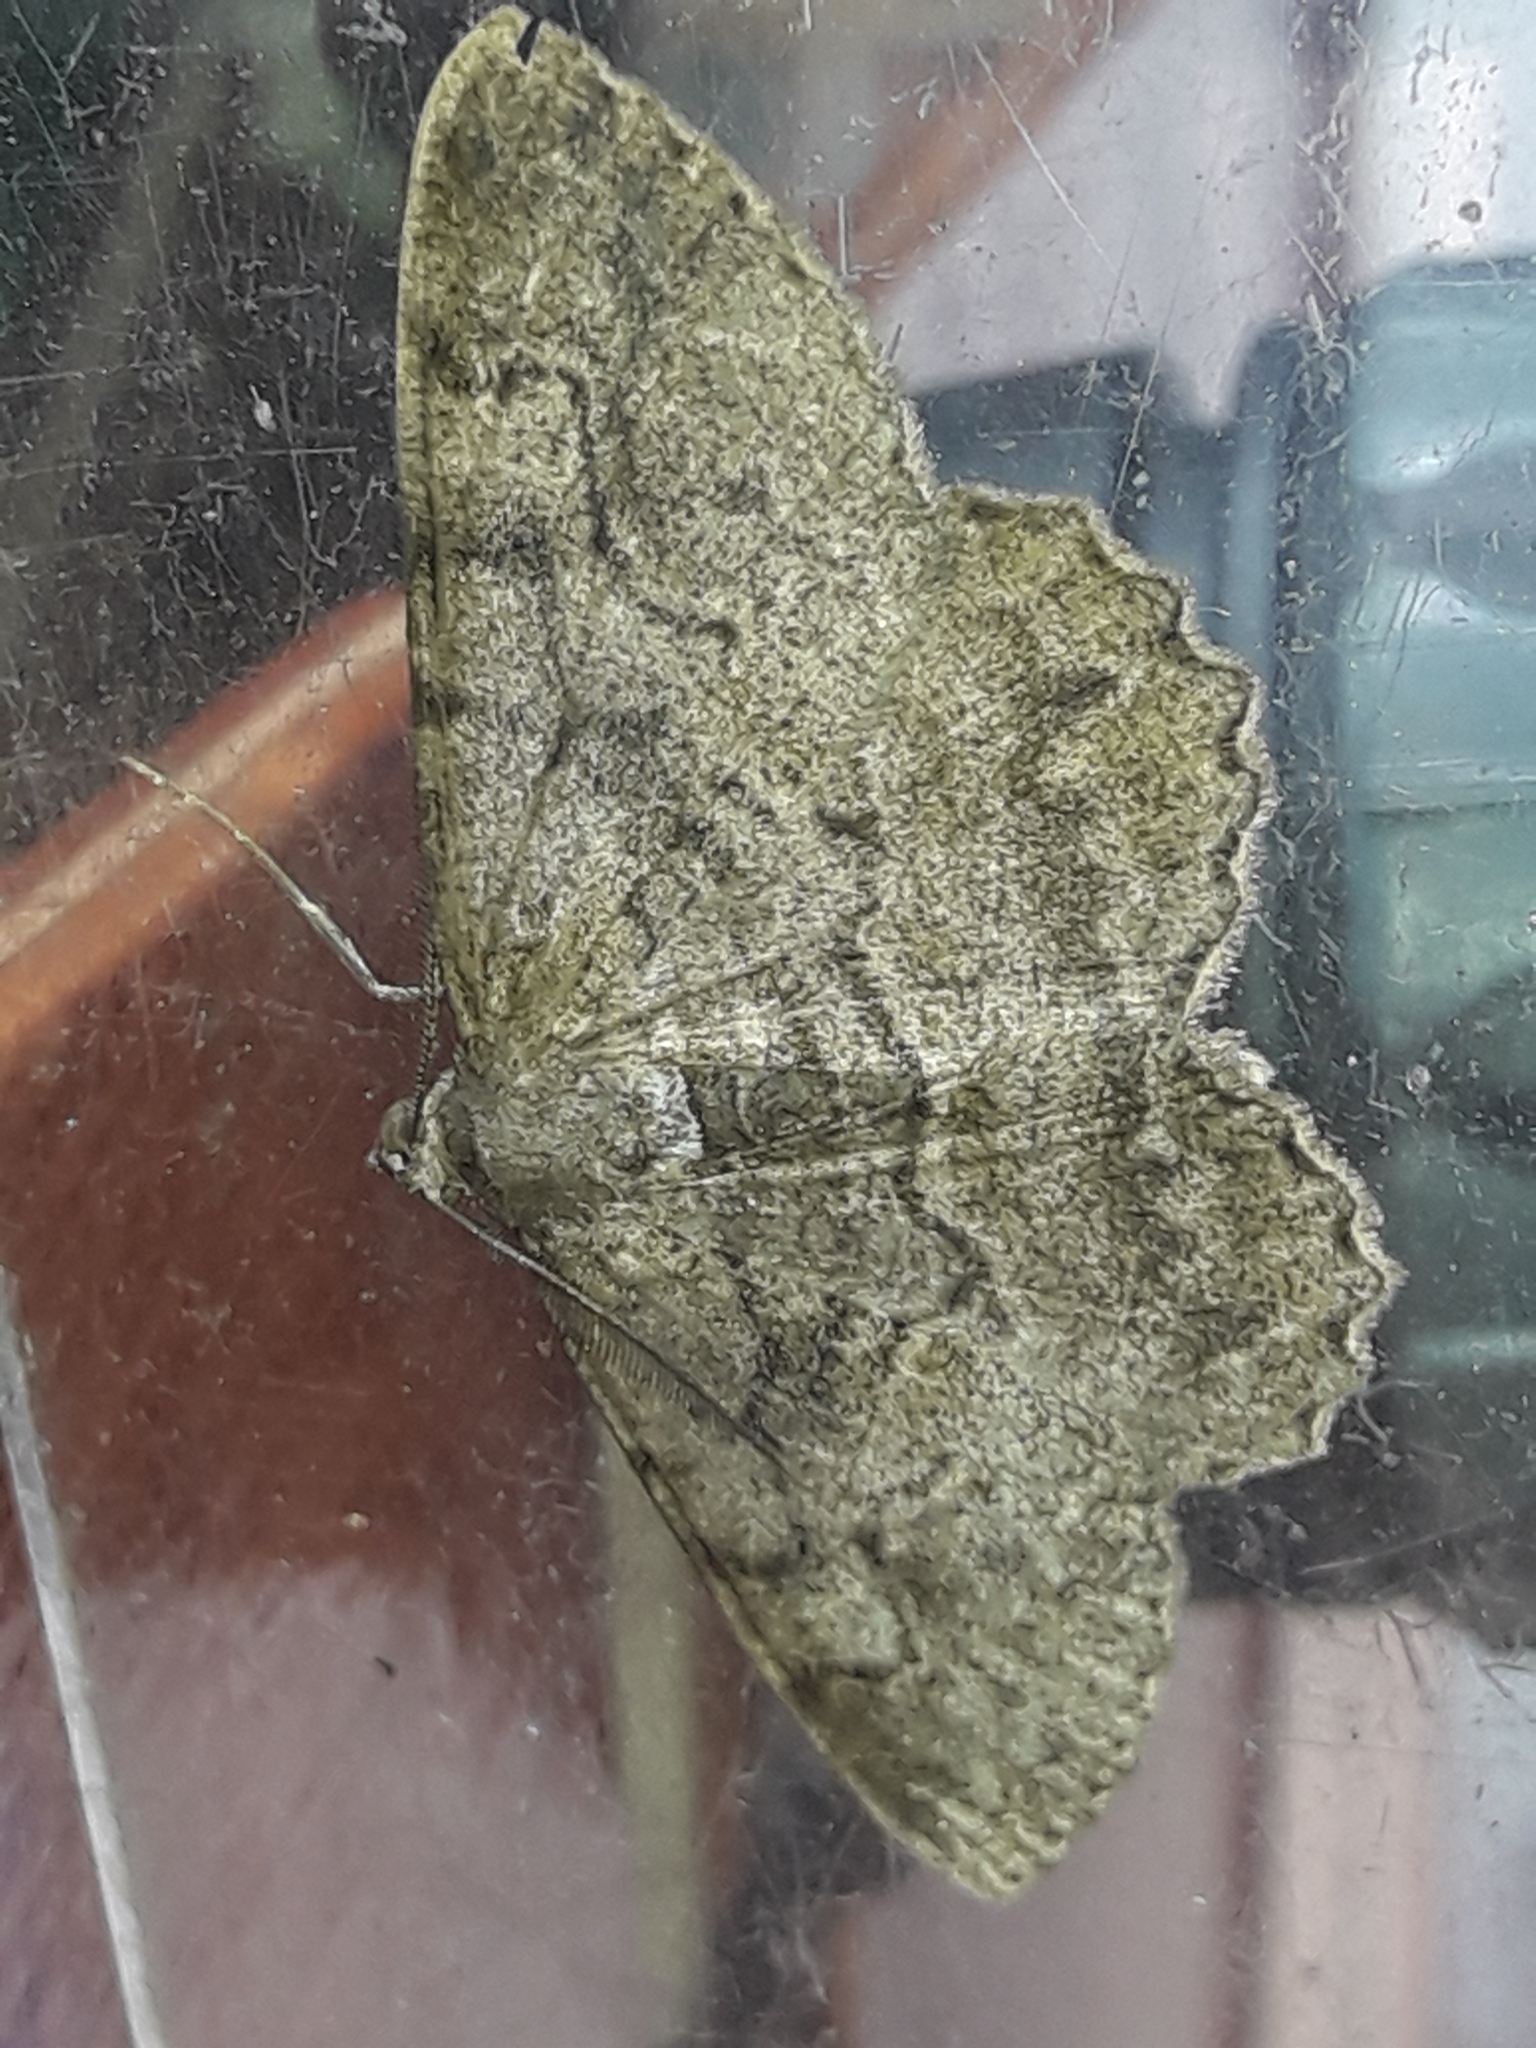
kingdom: Animalia
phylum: Arthropoda
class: Insecta
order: Lepidoptera
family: Geometridae
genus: Alcis
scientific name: Alcis repandata
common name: Mottled beauty
